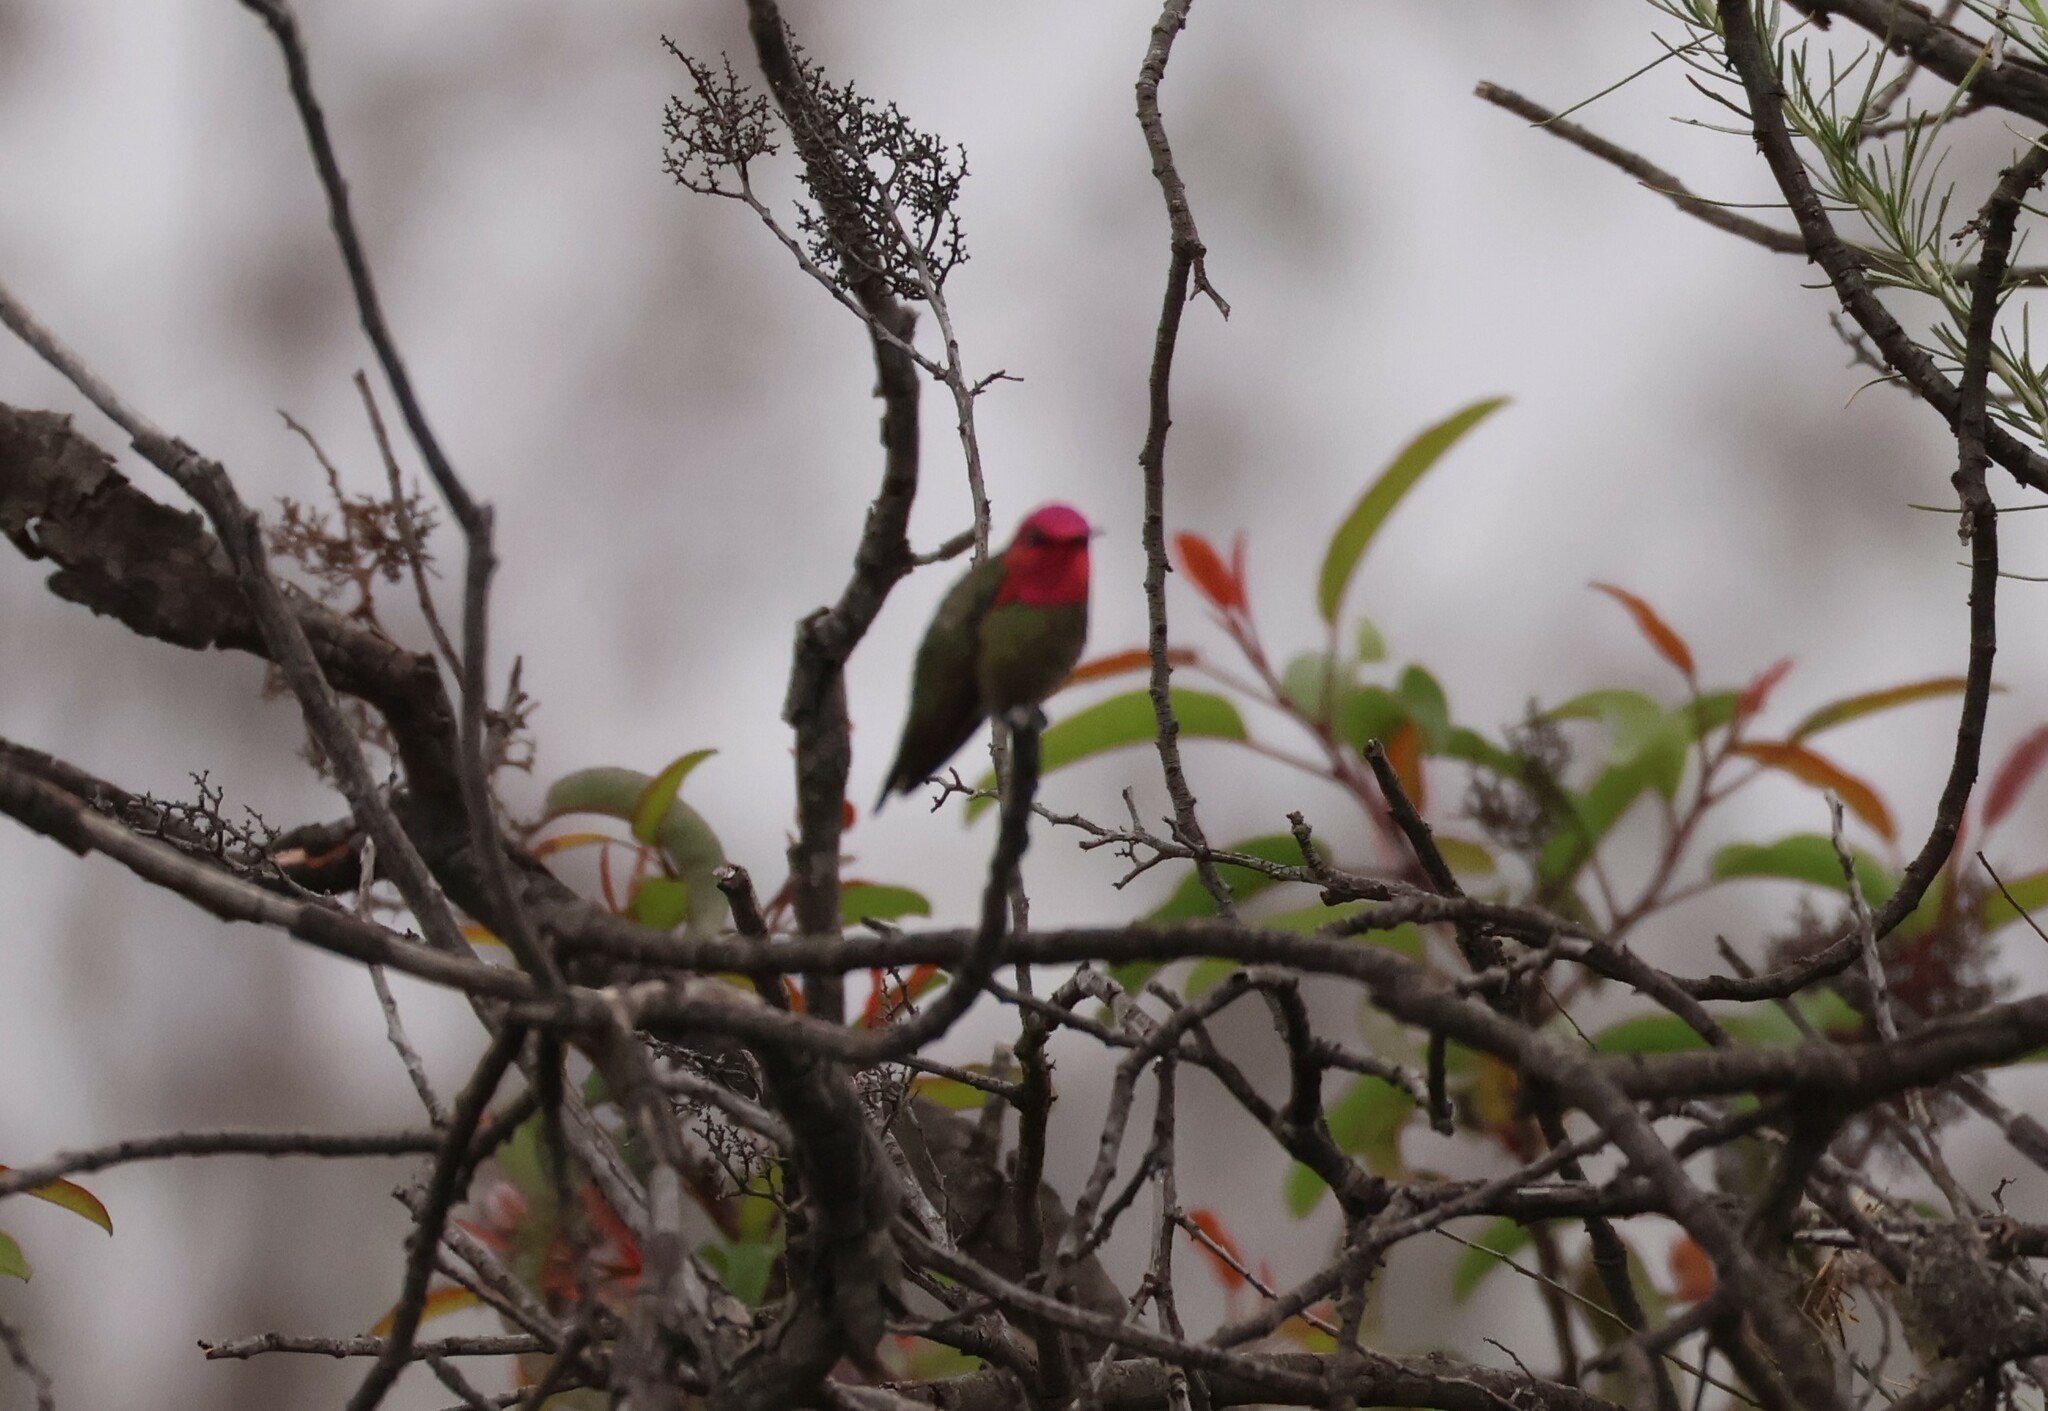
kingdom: Animalia
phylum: Chordata
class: Aves
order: Apodiformes
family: Trochilidae
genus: Calypte
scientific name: Calypte anna
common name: Anna's hummingbird
